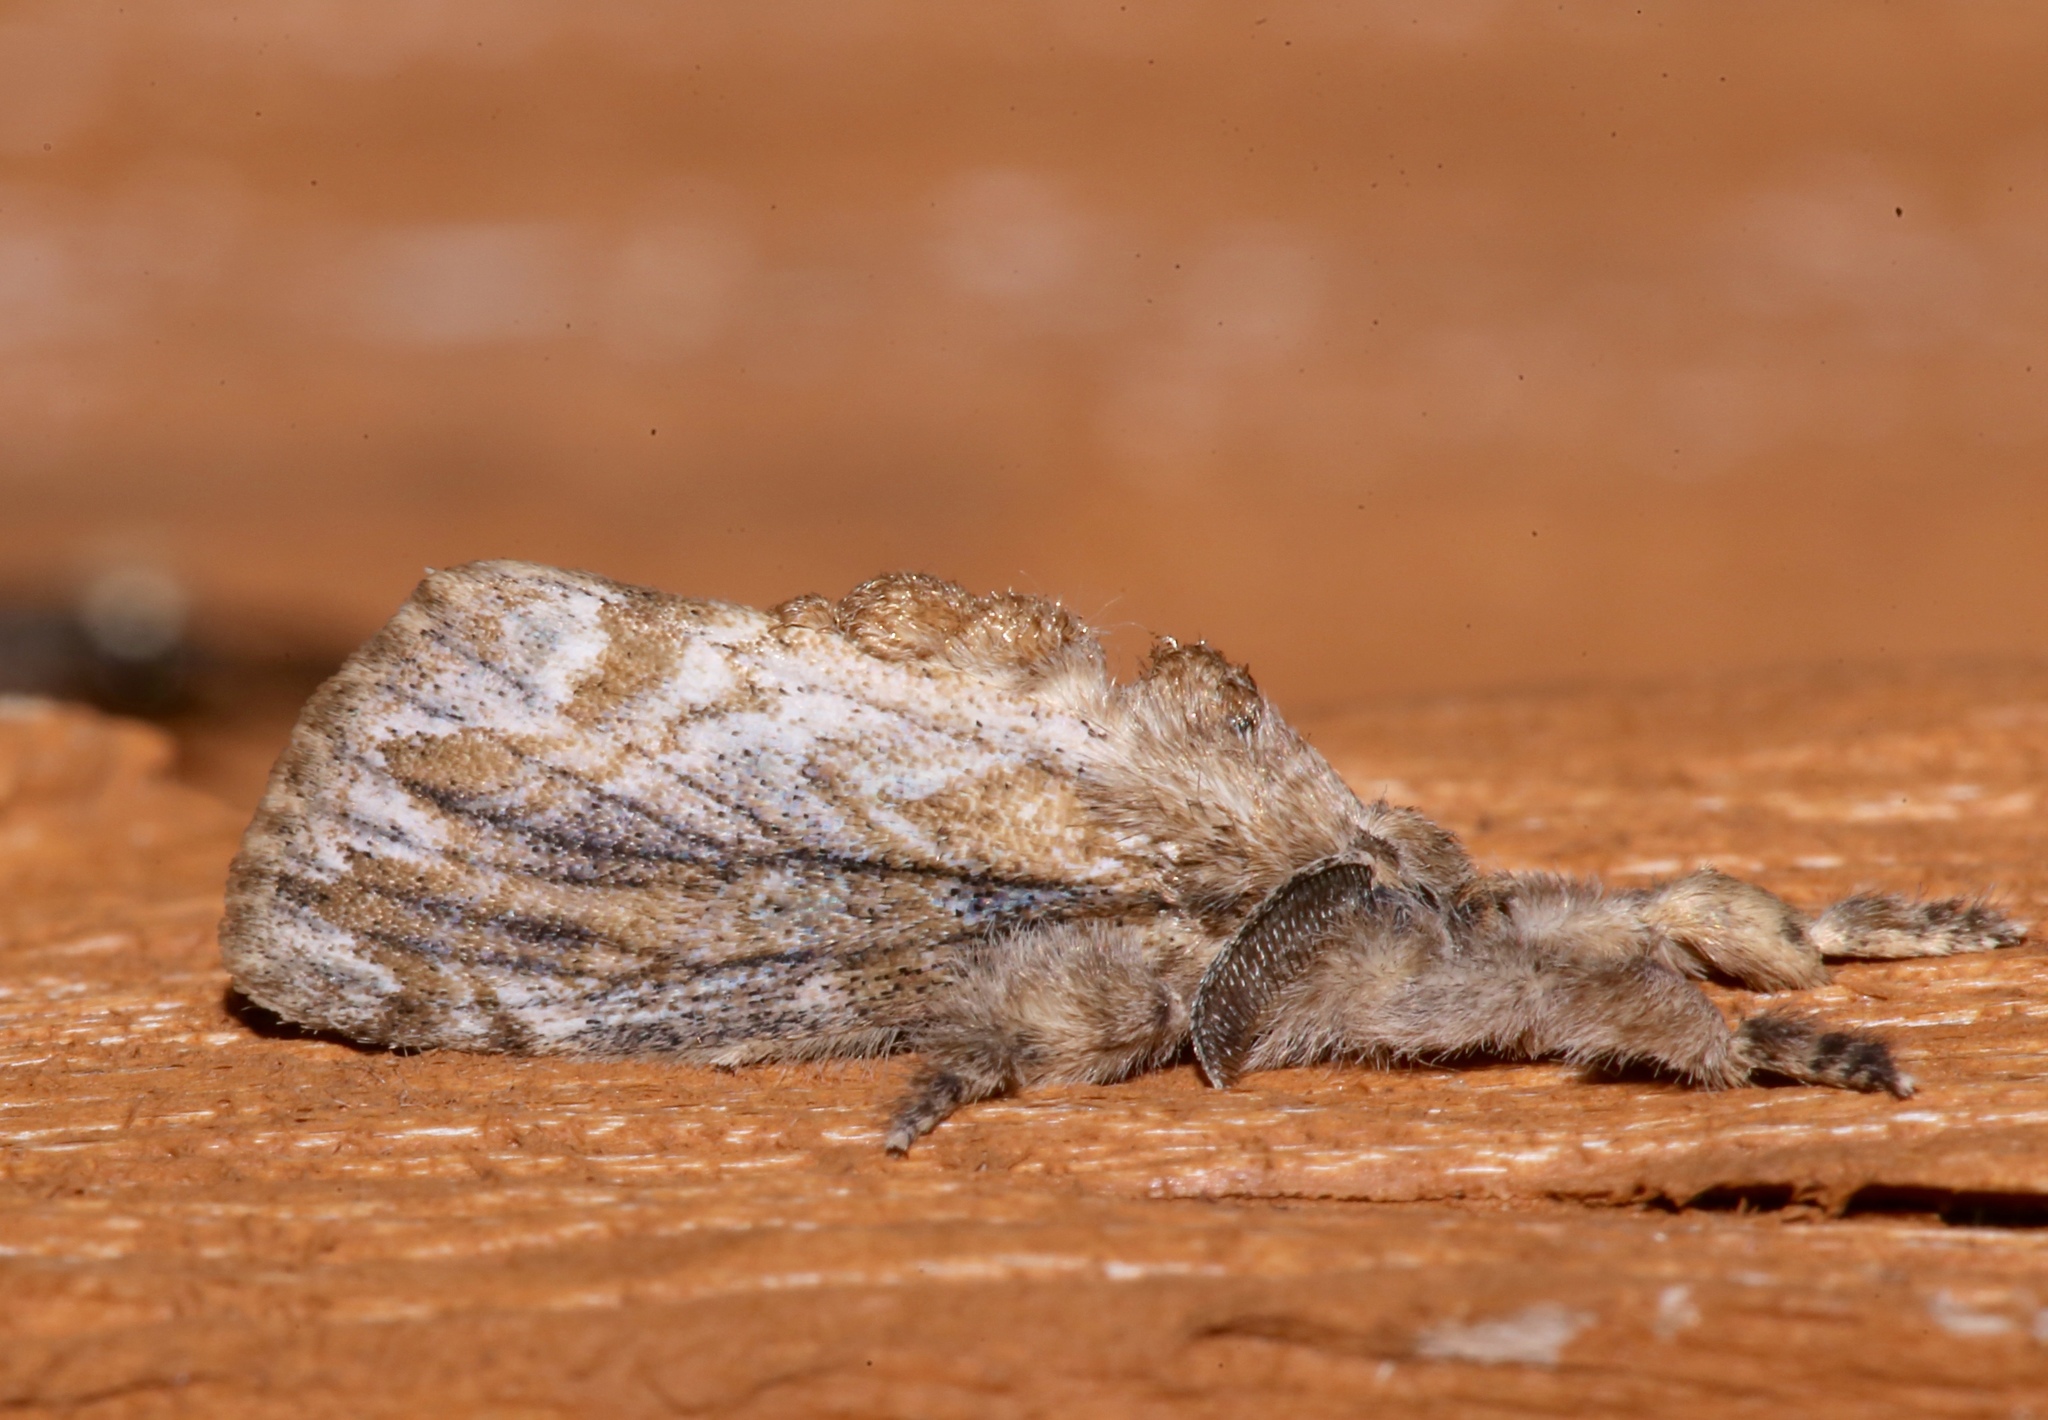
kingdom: Animalia
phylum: Arthropoda
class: Insecta
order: Lepidoptera
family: Erebidae
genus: Dasychira
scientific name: Dasychira atrivenosa
